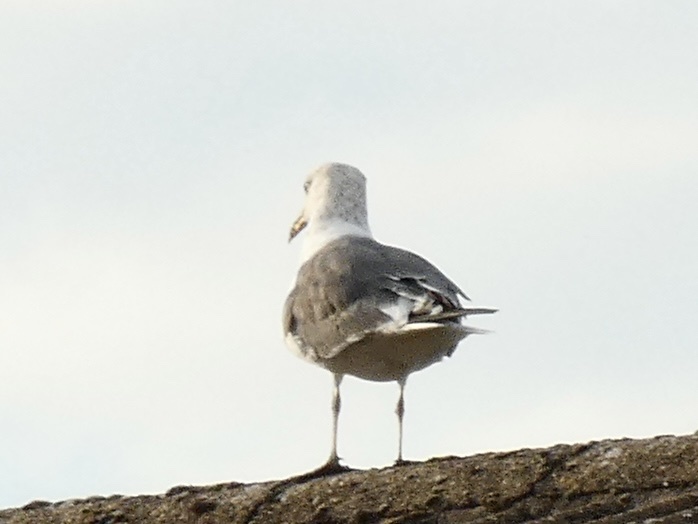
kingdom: Animalia
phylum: Chordata
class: Aves
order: Charadriiformes
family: Laridae
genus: Larus
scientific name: Larus fuscus
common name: Lesser black-backed gull
